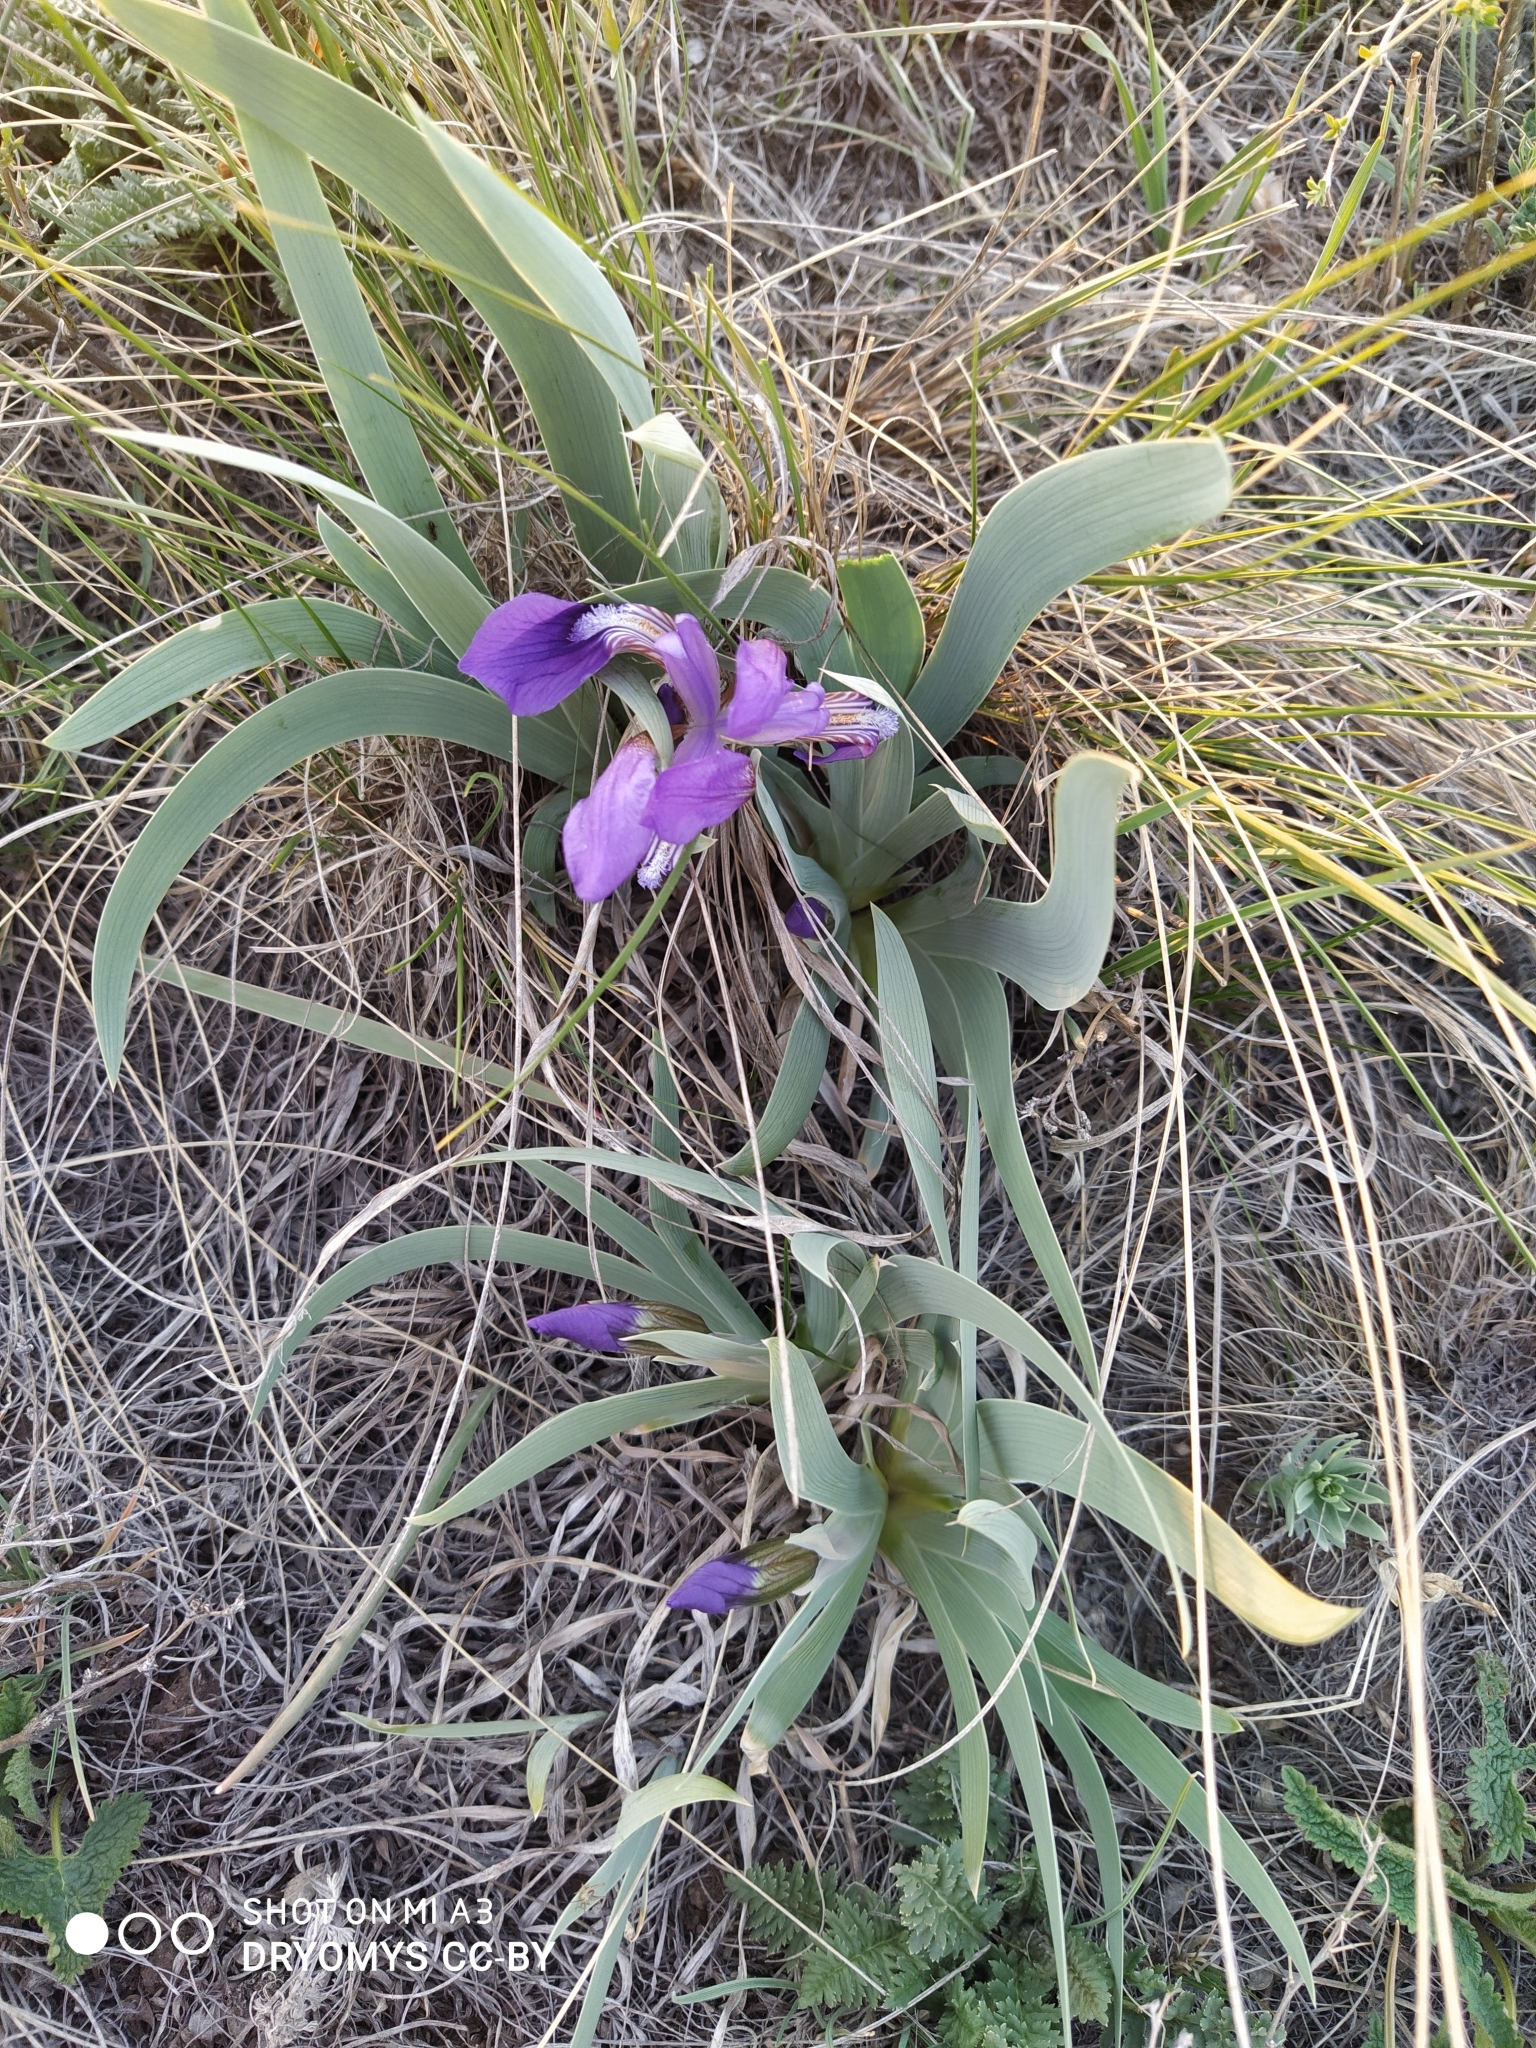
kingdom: Plantae
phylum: Tracheophyta
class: Liliopsida
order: Asparagales
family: Iridaceae
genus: Iris
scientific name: Iris glaucescens
